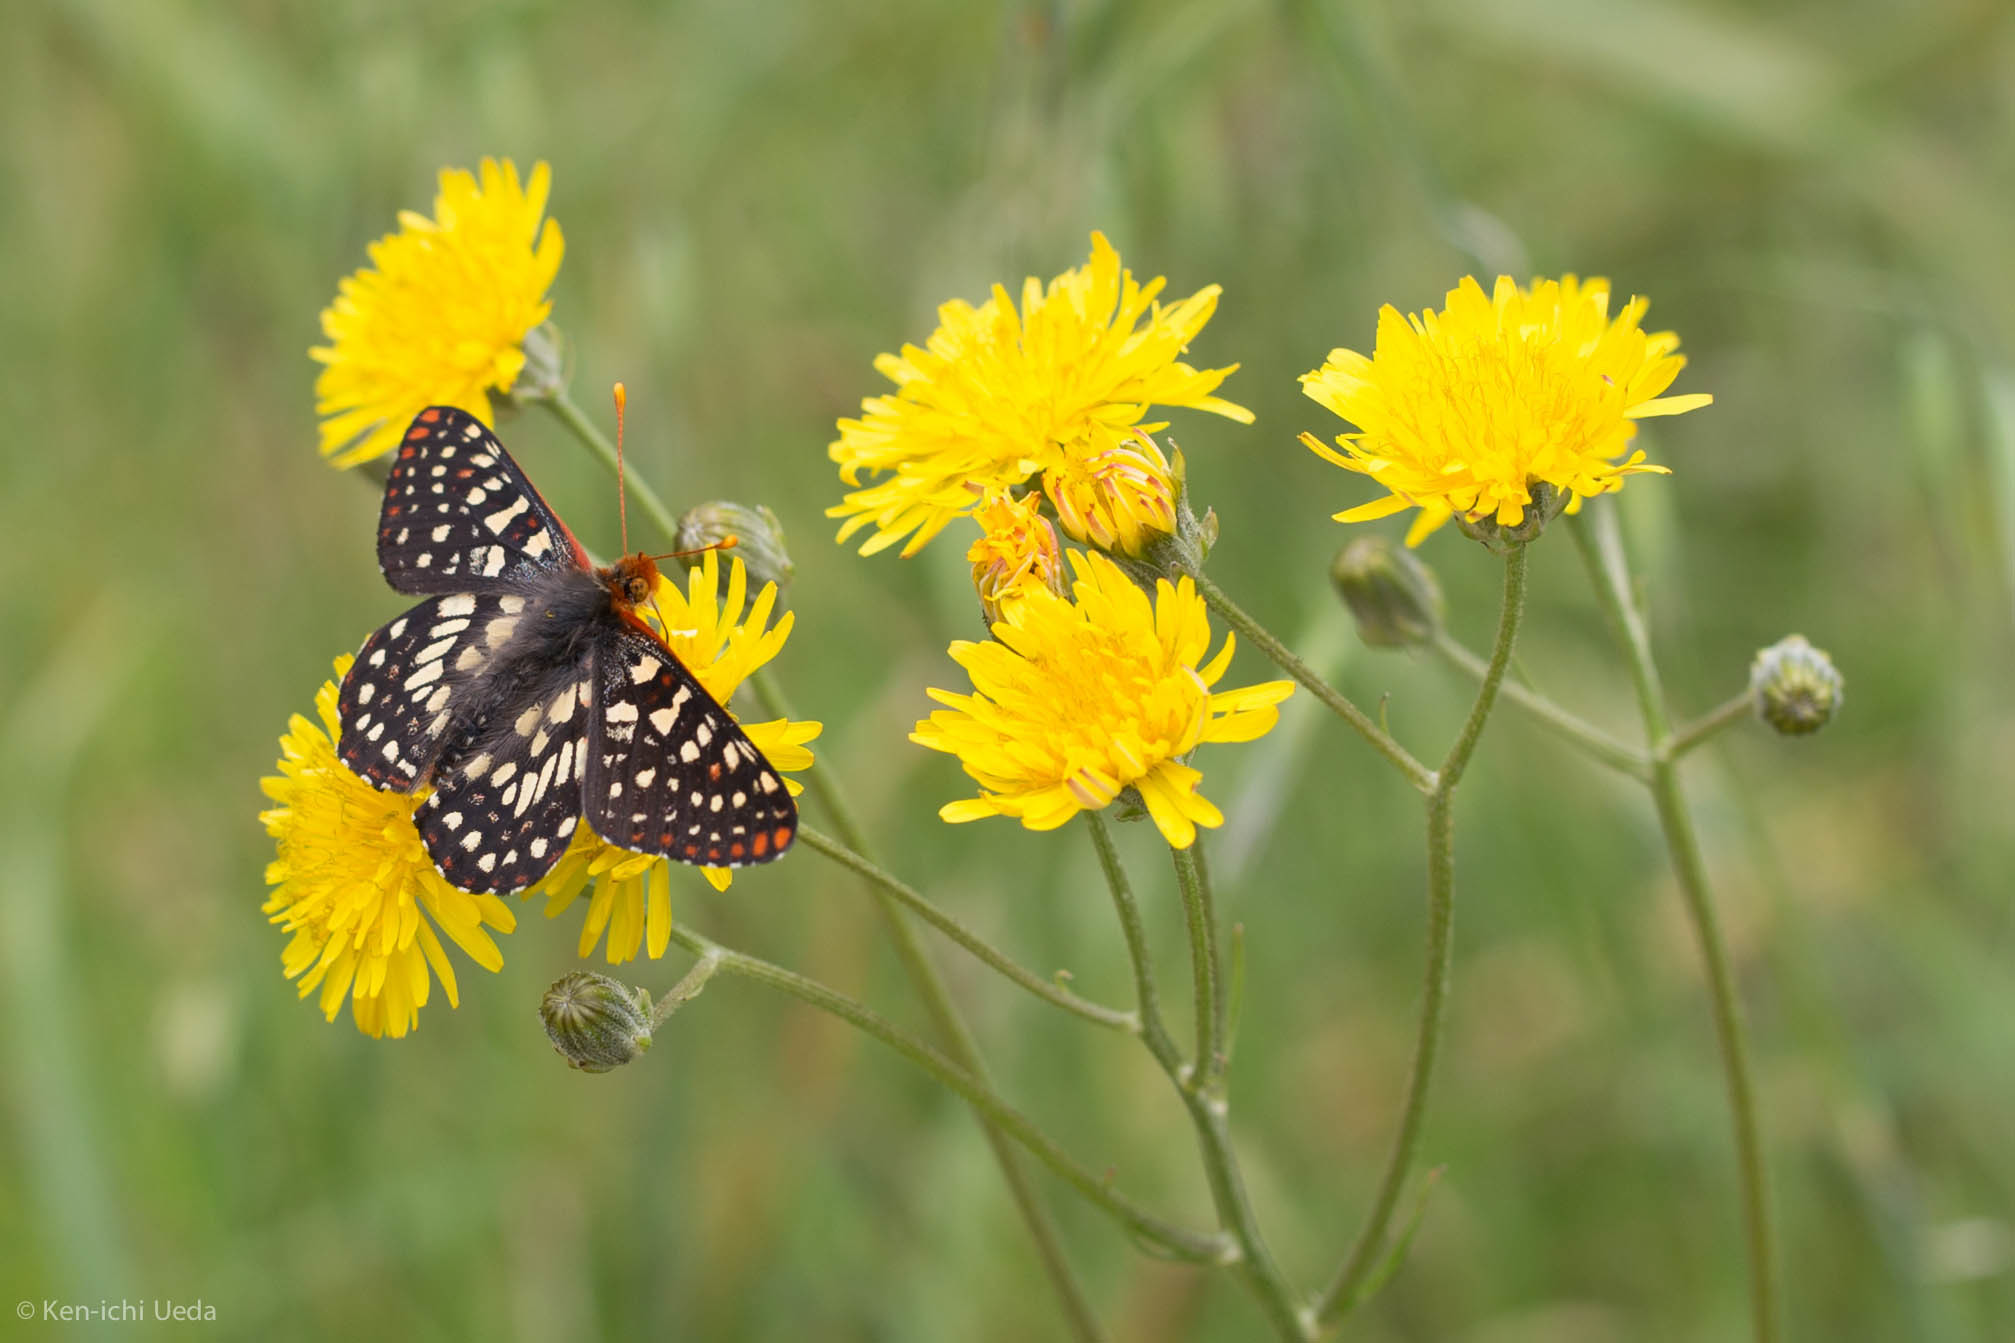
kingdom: Animalia
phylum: Arthropoda
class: Insecta
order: Lepidoptera
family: Nymphalidae
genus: Occidryas
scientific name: Occidryas chalcedona
